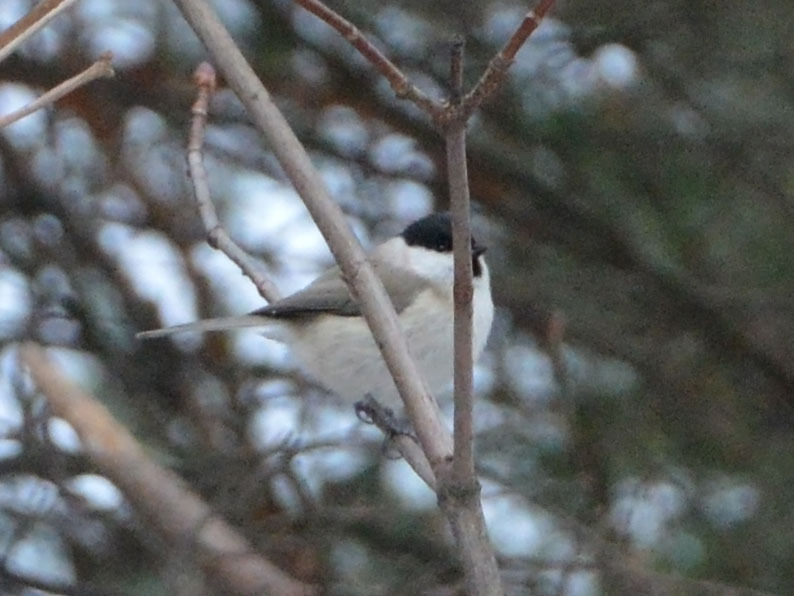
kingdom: Animalia
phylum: Chordata
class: Aves
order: Passeriformes
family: Paridae
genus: Poecile
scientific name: Poecile palustris
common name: Marsh tit
